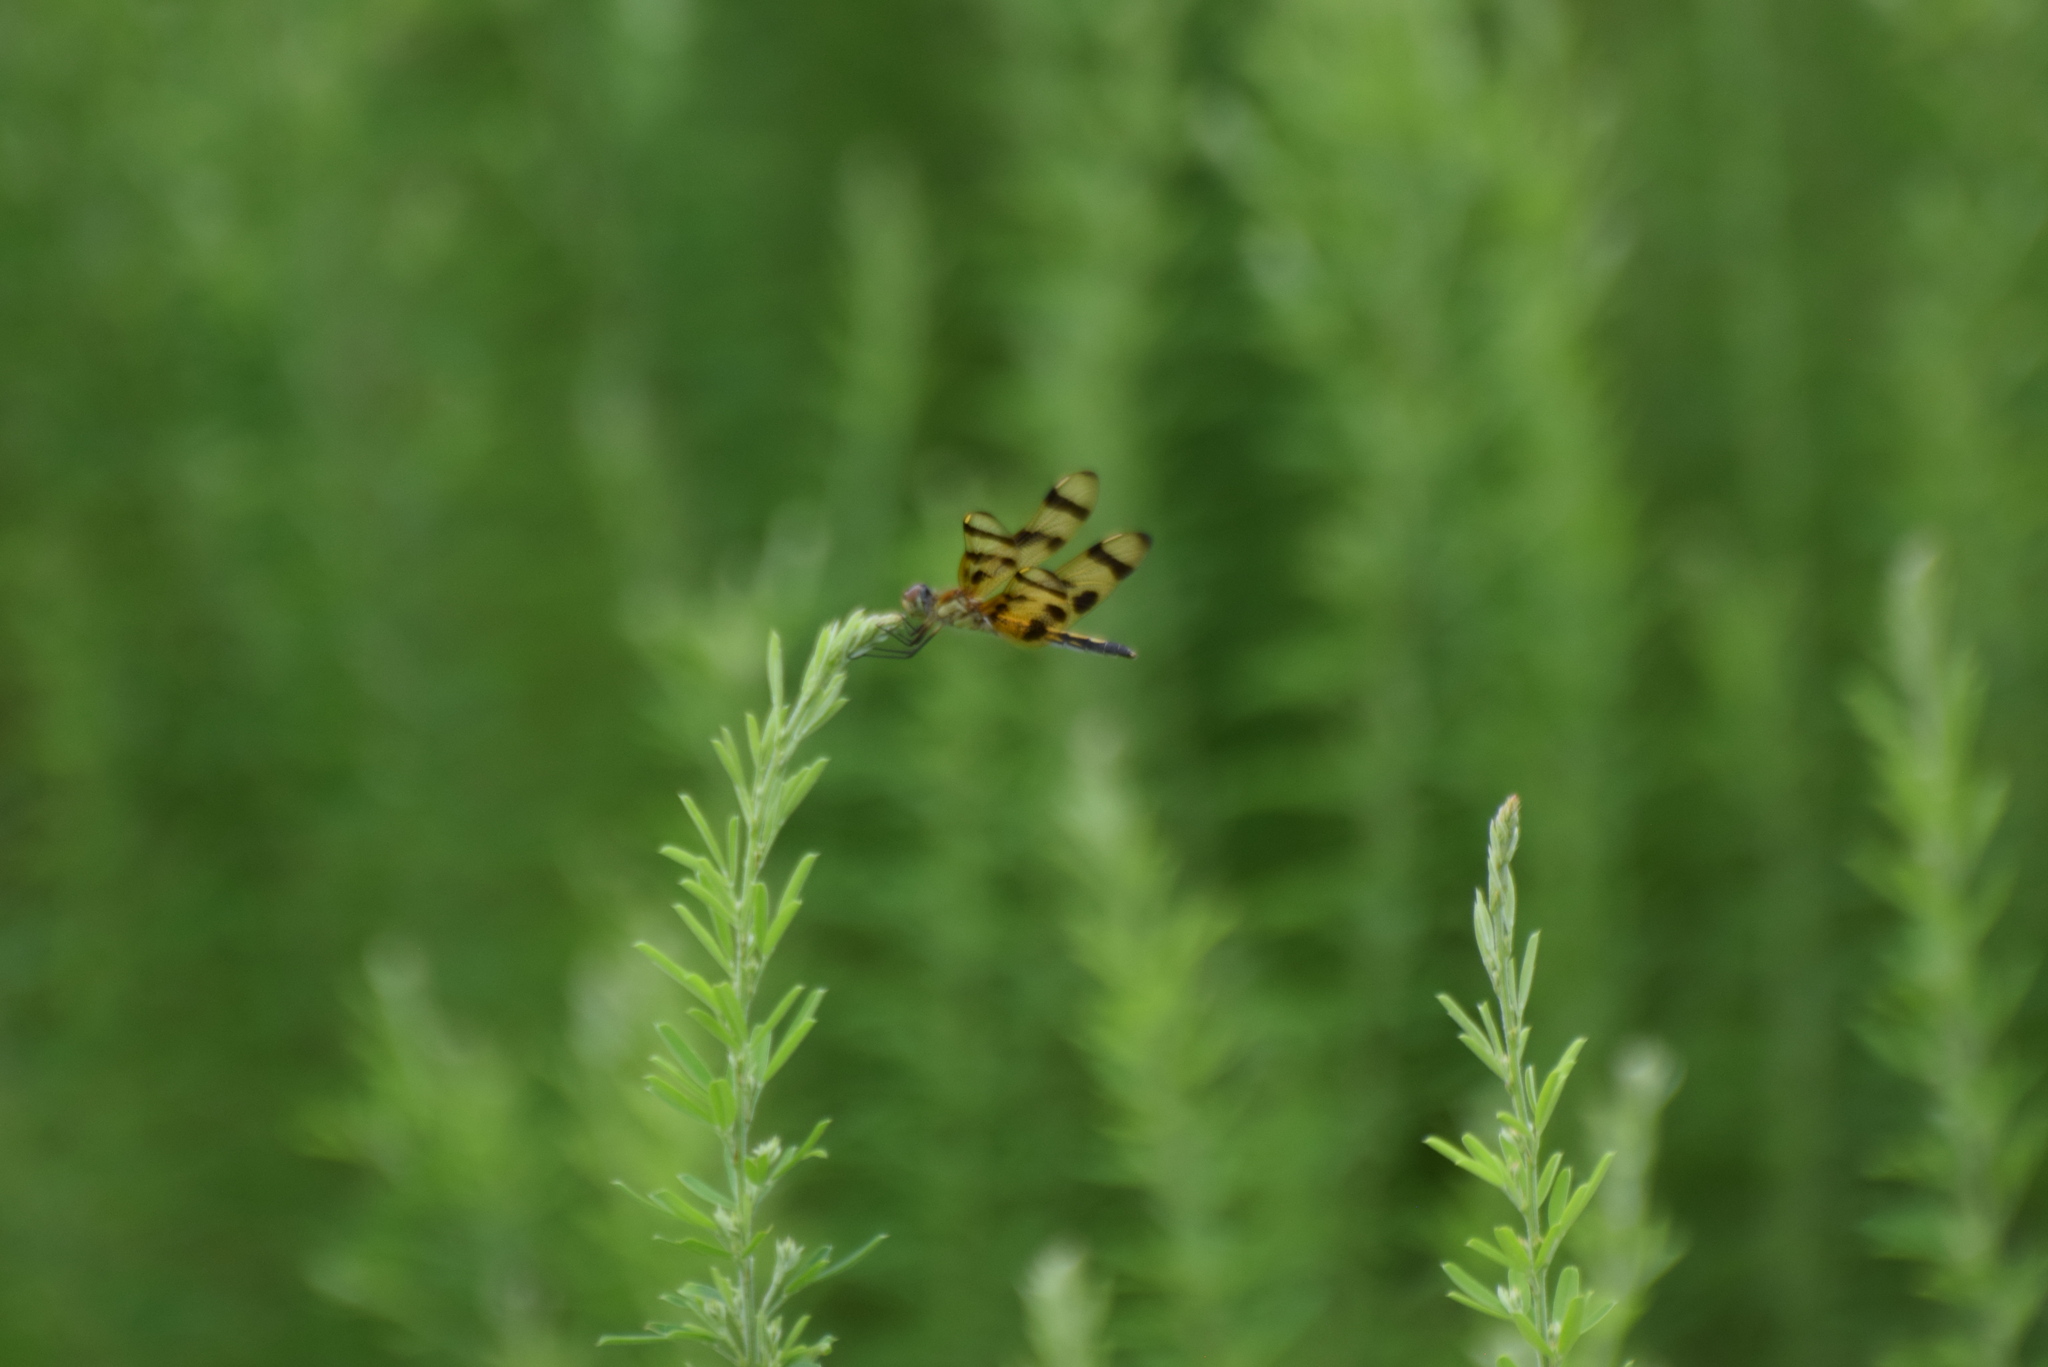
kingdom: Animalia
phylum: Arthropoda
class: Insecta
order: Odonata
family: Libellulidae
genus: Celithemis
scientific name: Celithemis eponina
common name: Halloween pennant
